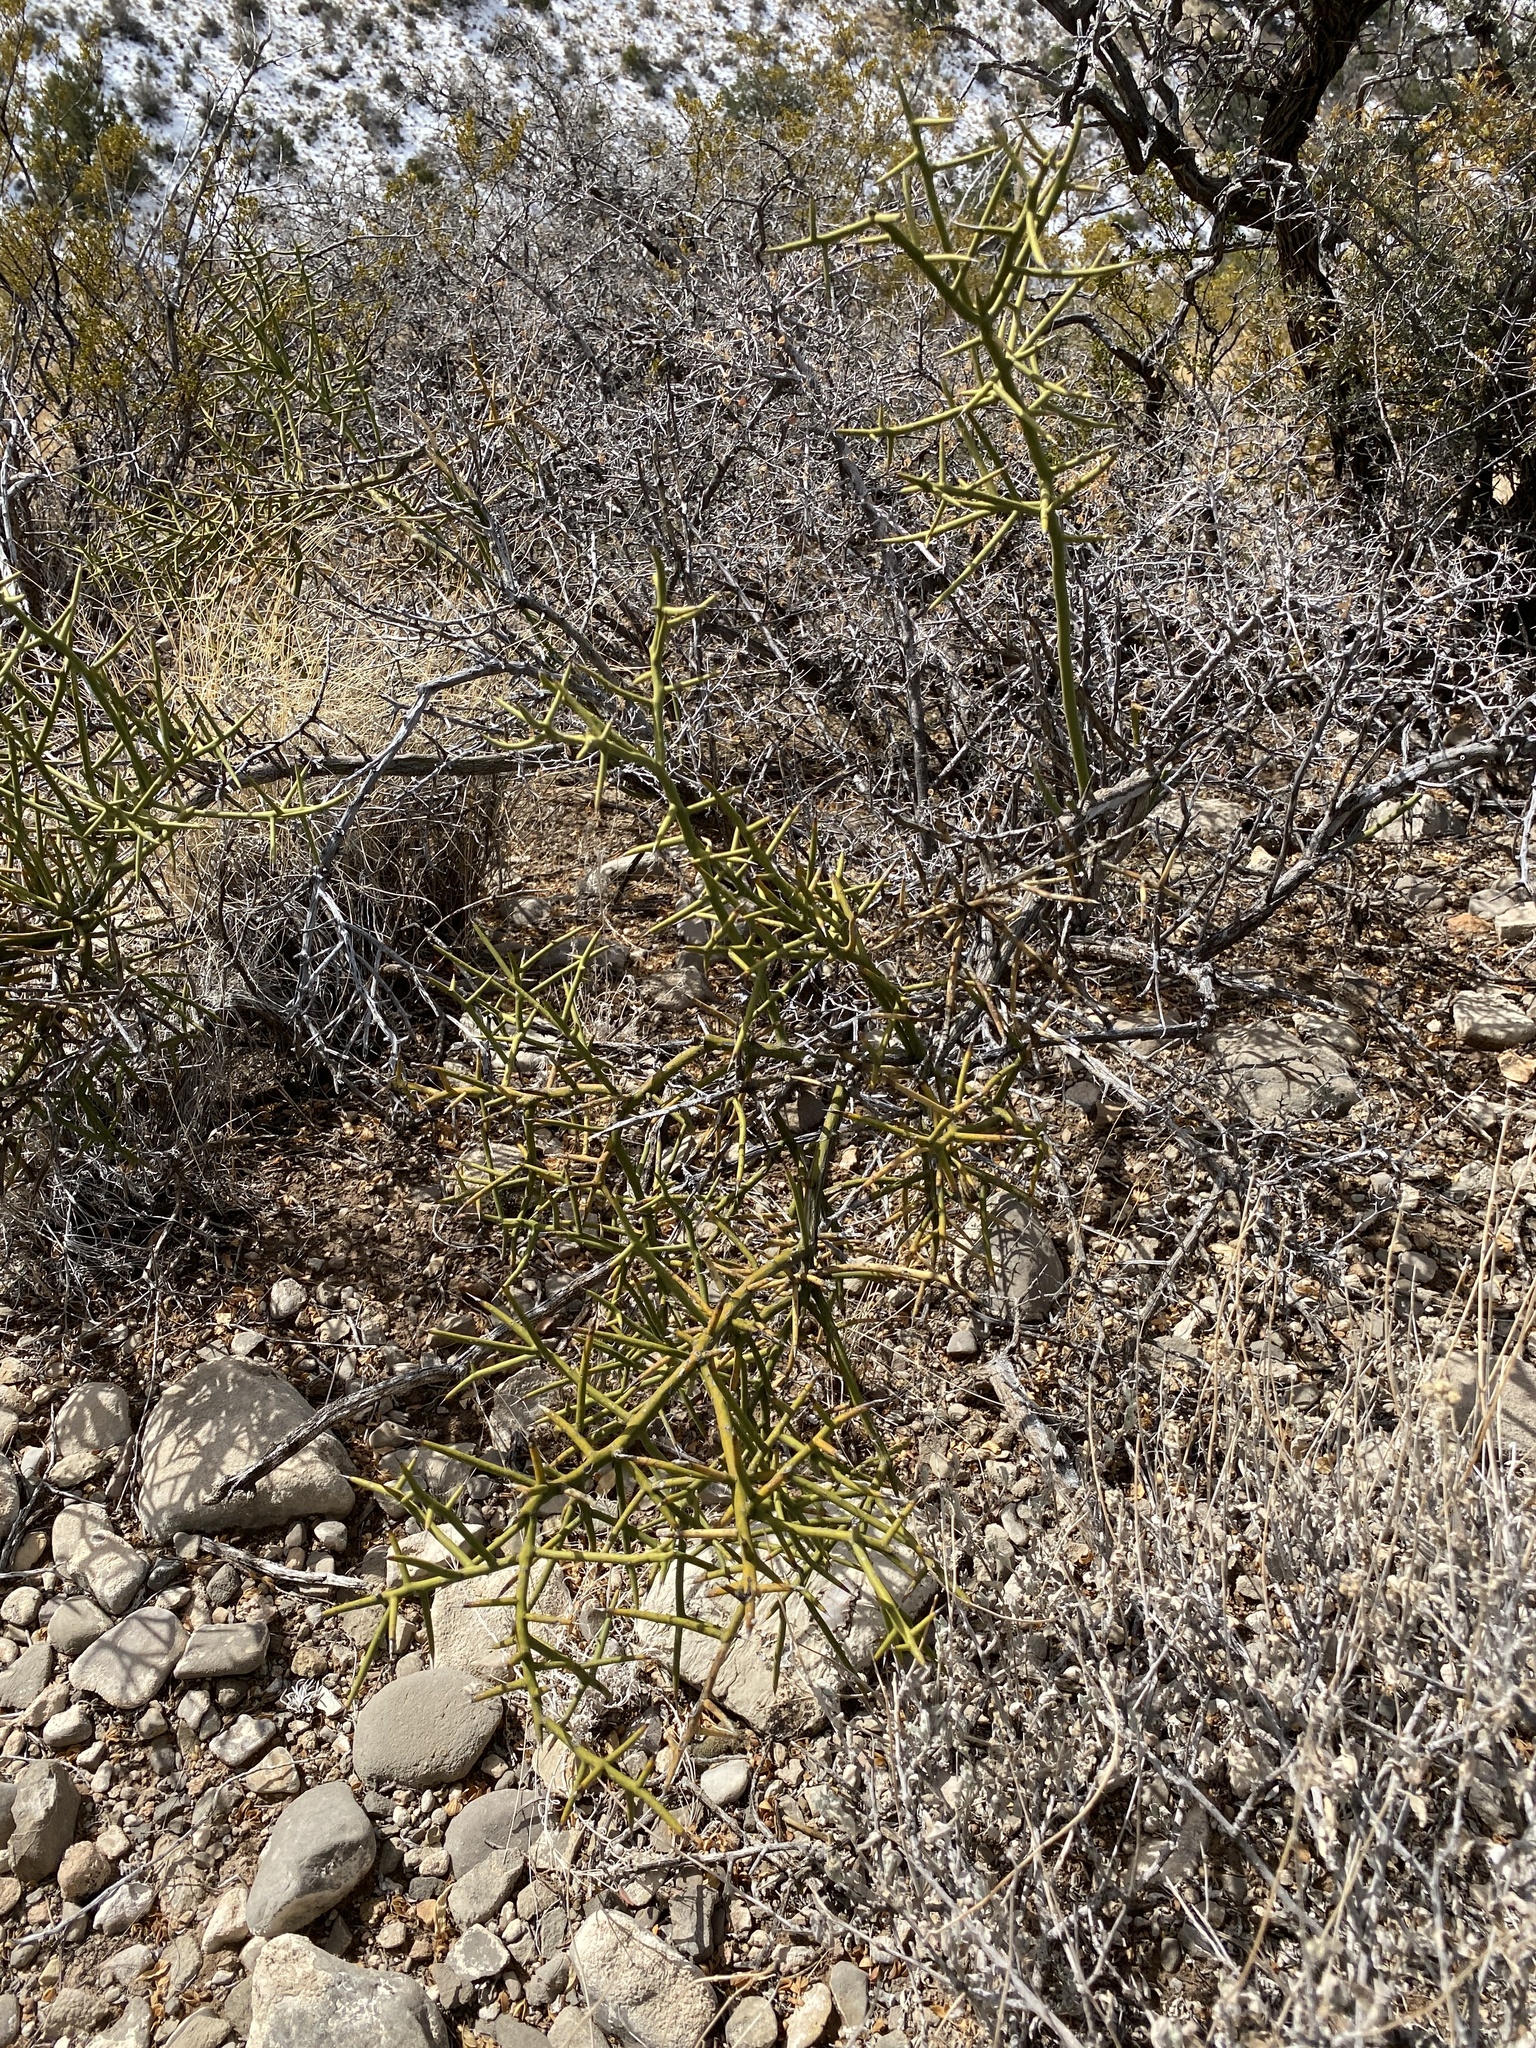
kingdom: Plantae
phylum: Tracheophyta
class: Magnoliopsida
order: Brassicales
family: Koeberliniaceae
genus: Koeberlinia
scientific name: Koeberlinia spinosa
